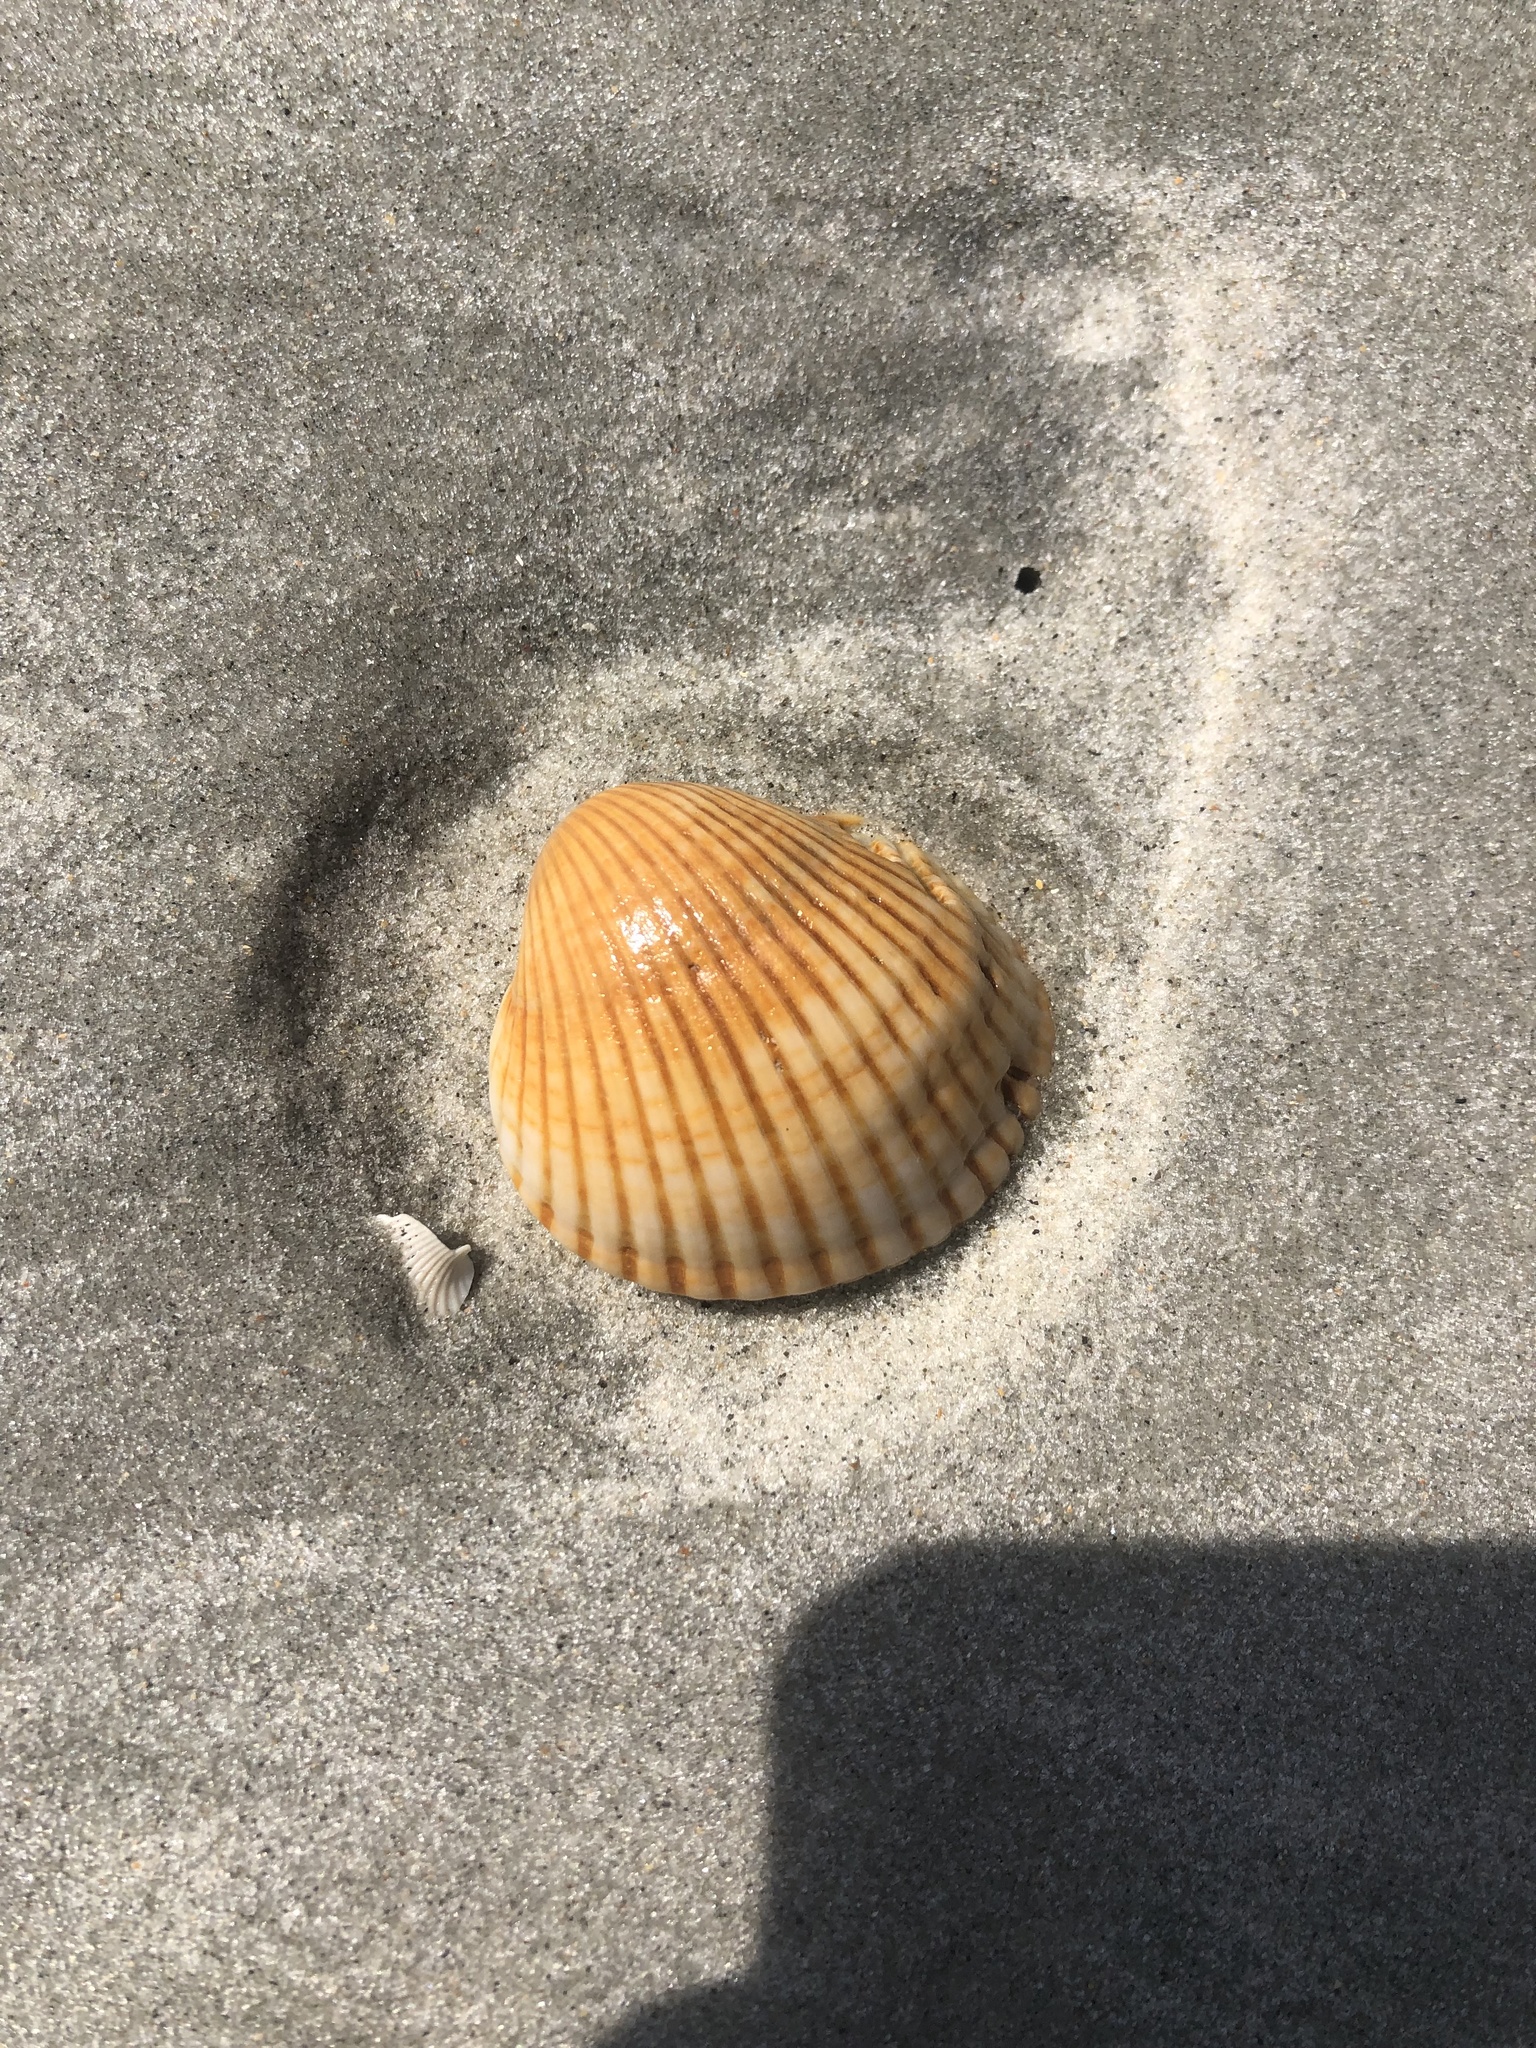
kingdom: Animalia
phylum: Mollusca
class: Bivalvia
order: Arcida
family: Arcidae
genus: Lunarca
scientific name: Lunarca ovalis
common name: Blood ark
